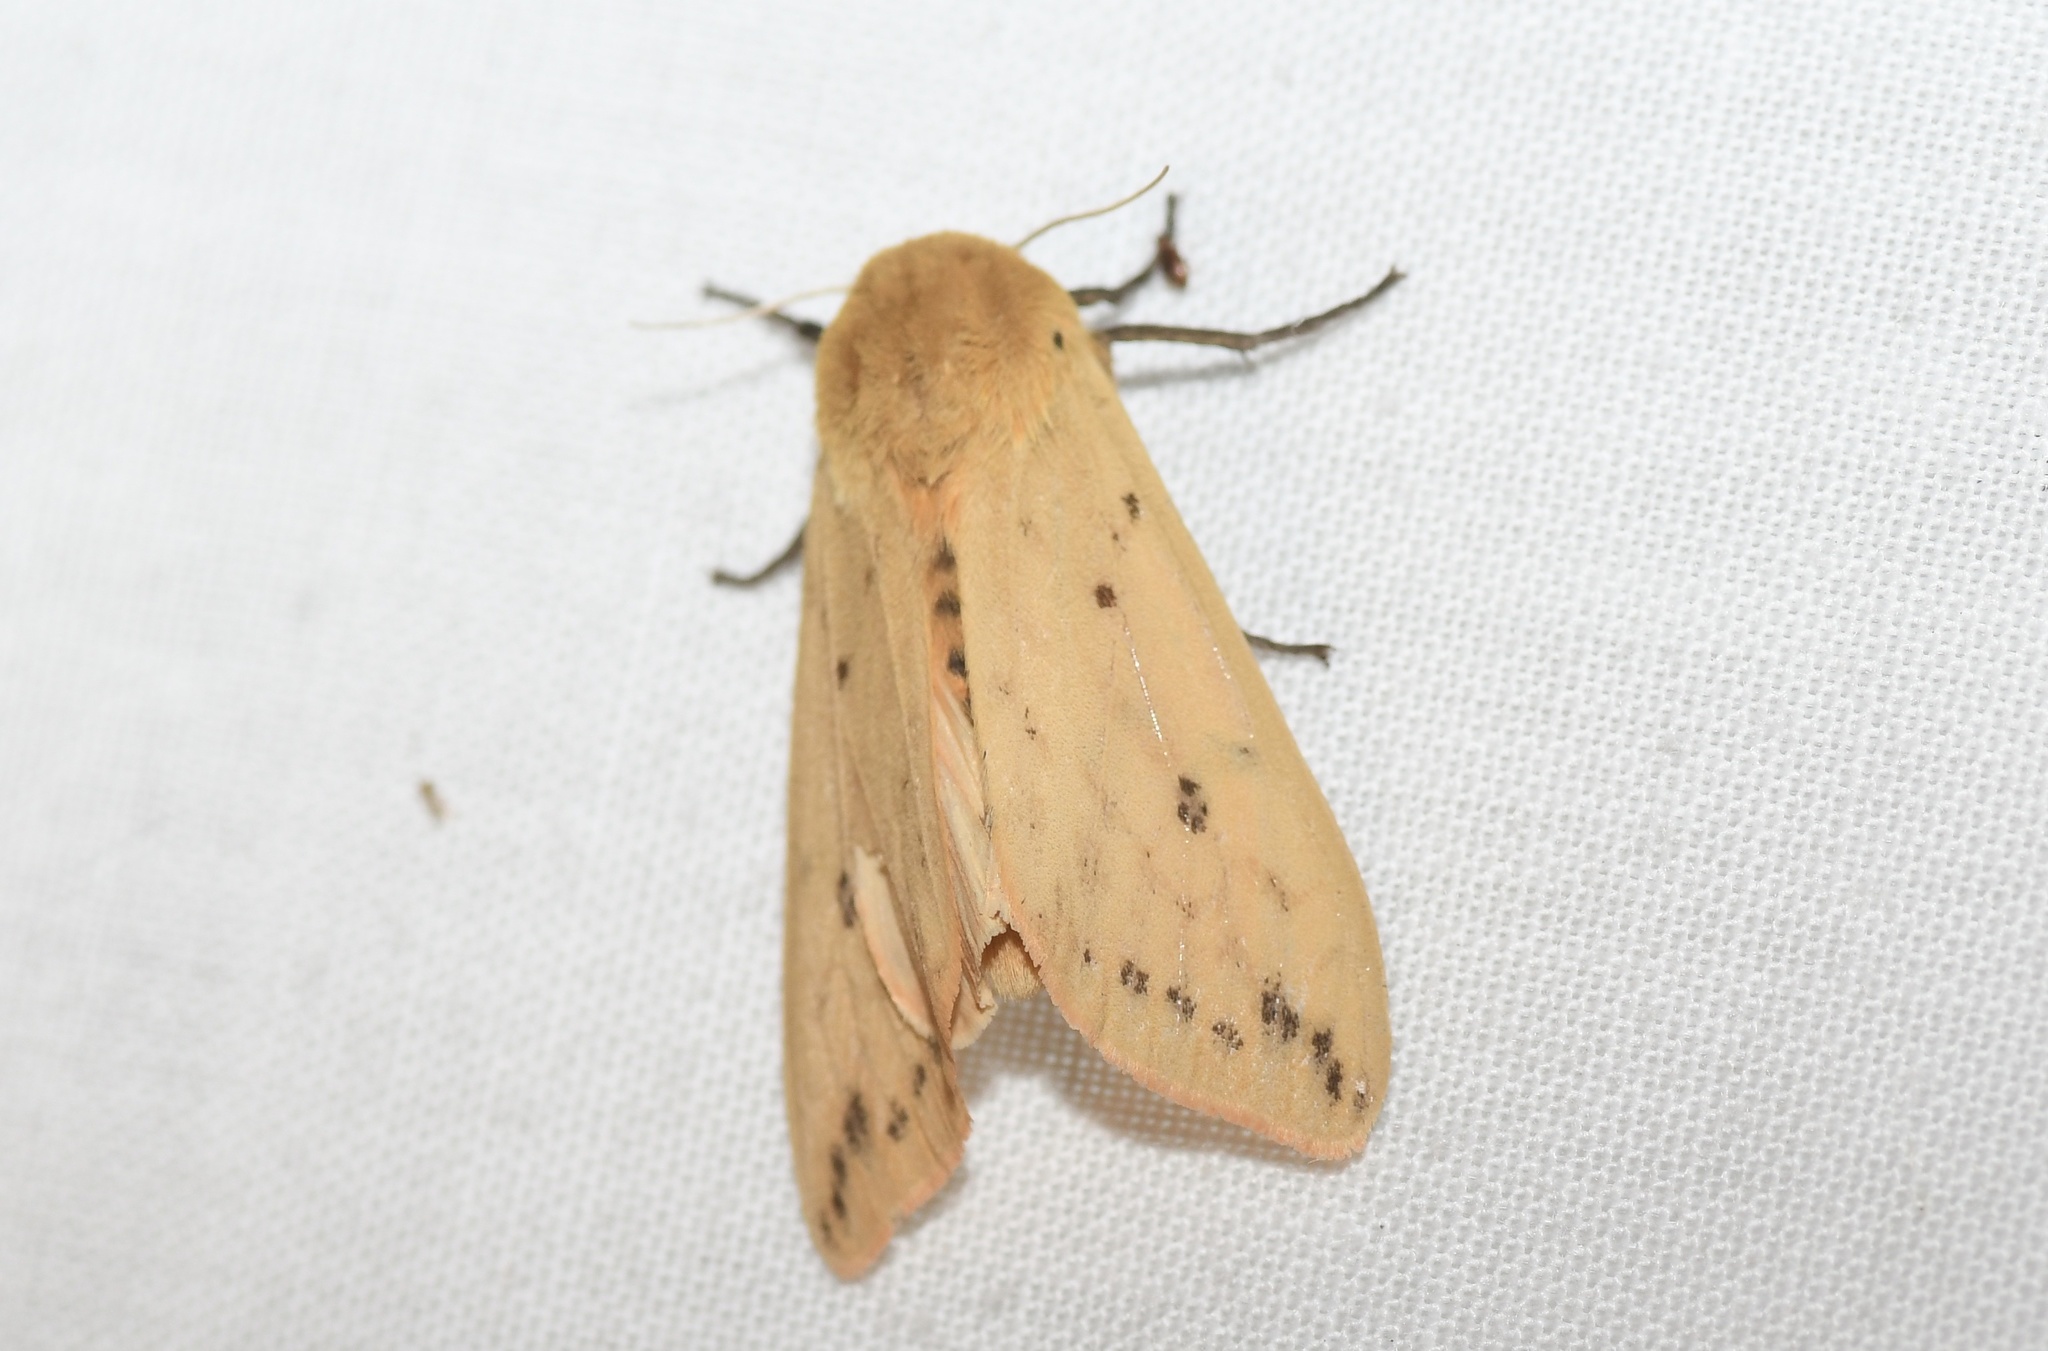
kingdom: Animalia
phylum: Arthropoda
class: Insecta
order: Lepidoptera
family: Erebidae
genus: Pyrrharctia
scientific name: Pyrrharctia isabella
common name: Isabella tiger moth
